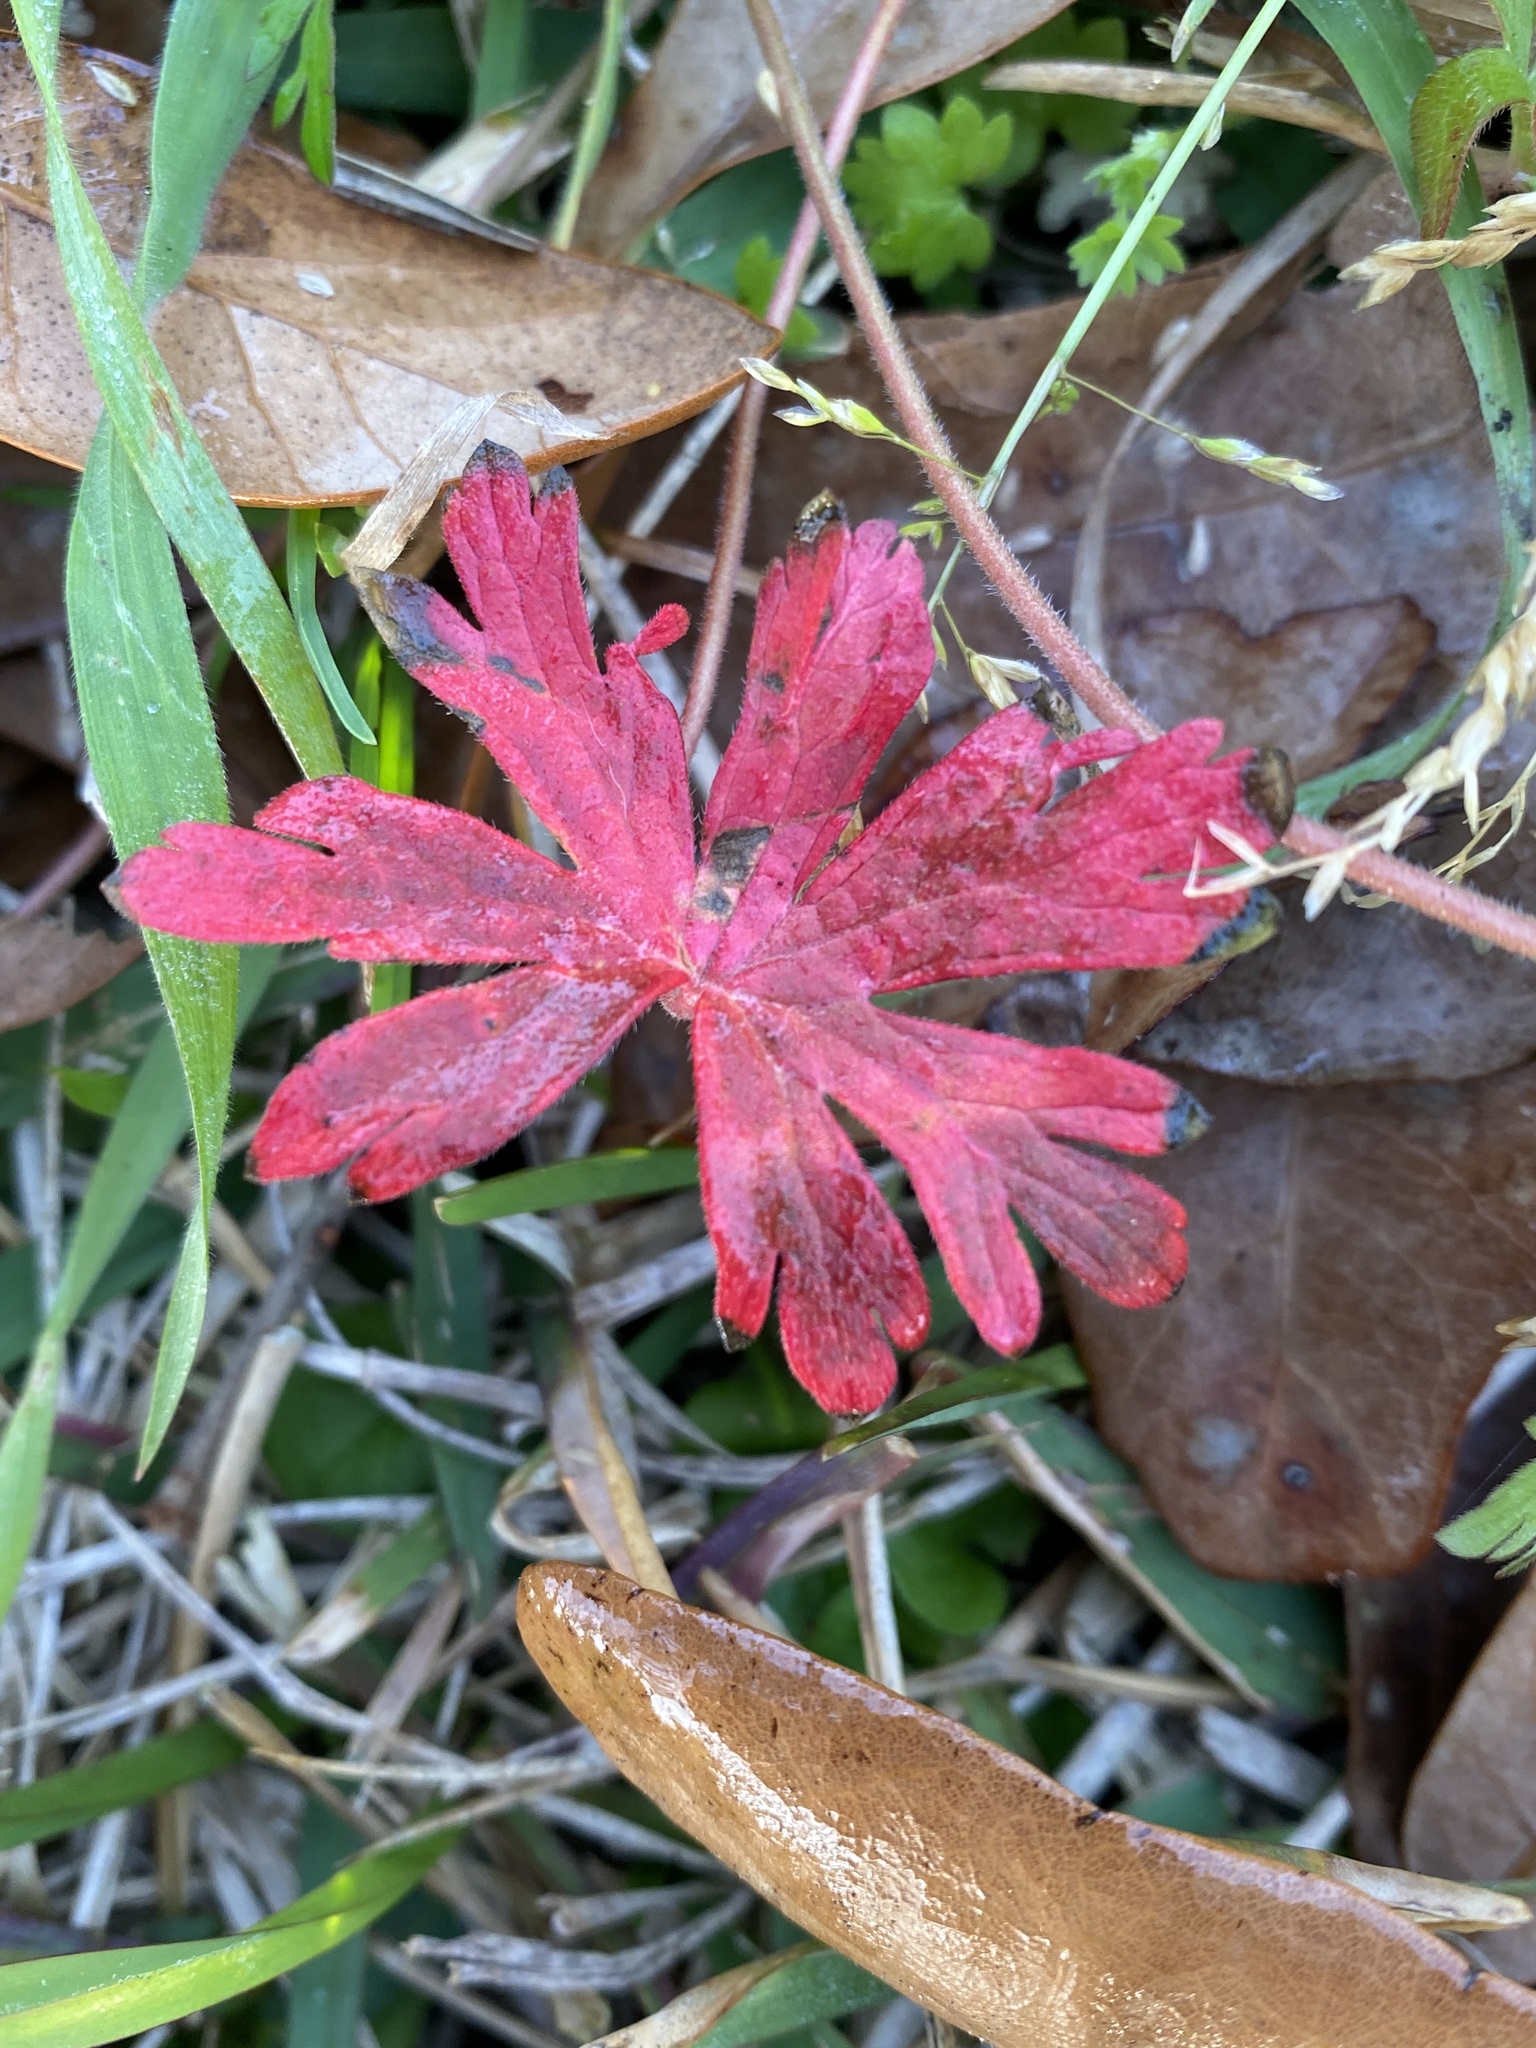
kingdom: Plantae
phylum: Tracheophyta
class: Magnoliopsida
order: Geraniales
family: Geraniaceae
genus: Geranium
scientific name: Geranium carolinianum
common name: Carolina crane's-bill
